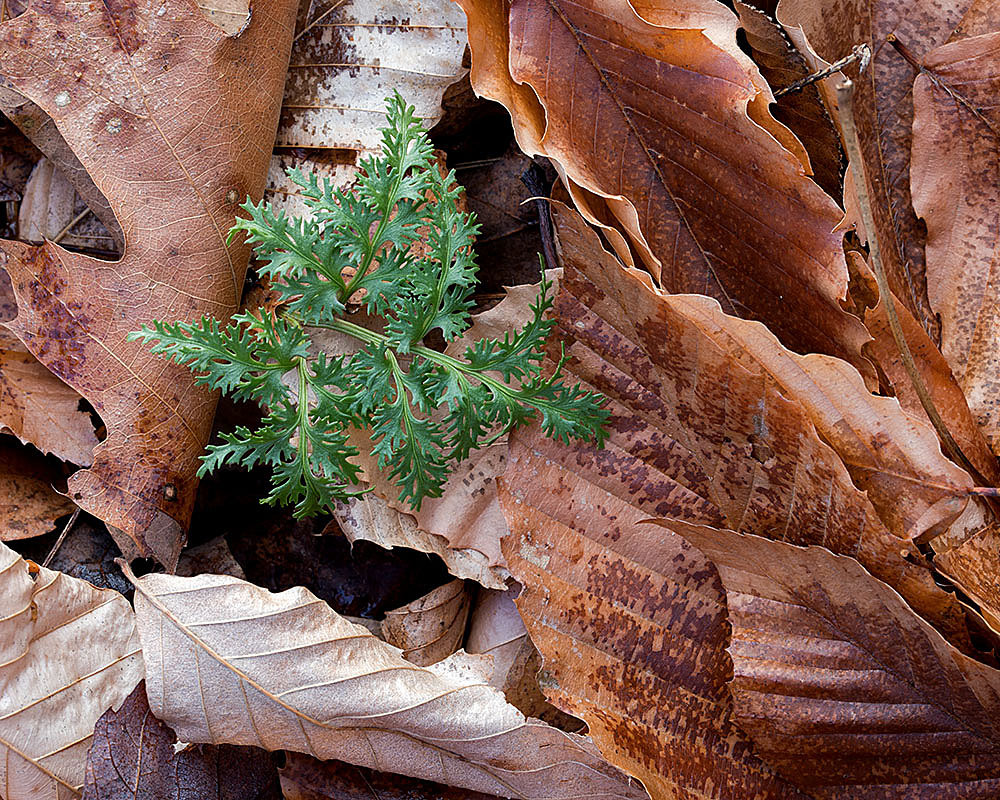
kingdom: Plantae
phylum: Tracheophyta
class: Polypodiopsida
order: Ophioglossales
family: Ophioglossaceae
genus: Sceptridium
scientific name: Sceptridium dissectum
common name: Cut-leaved grapefern
